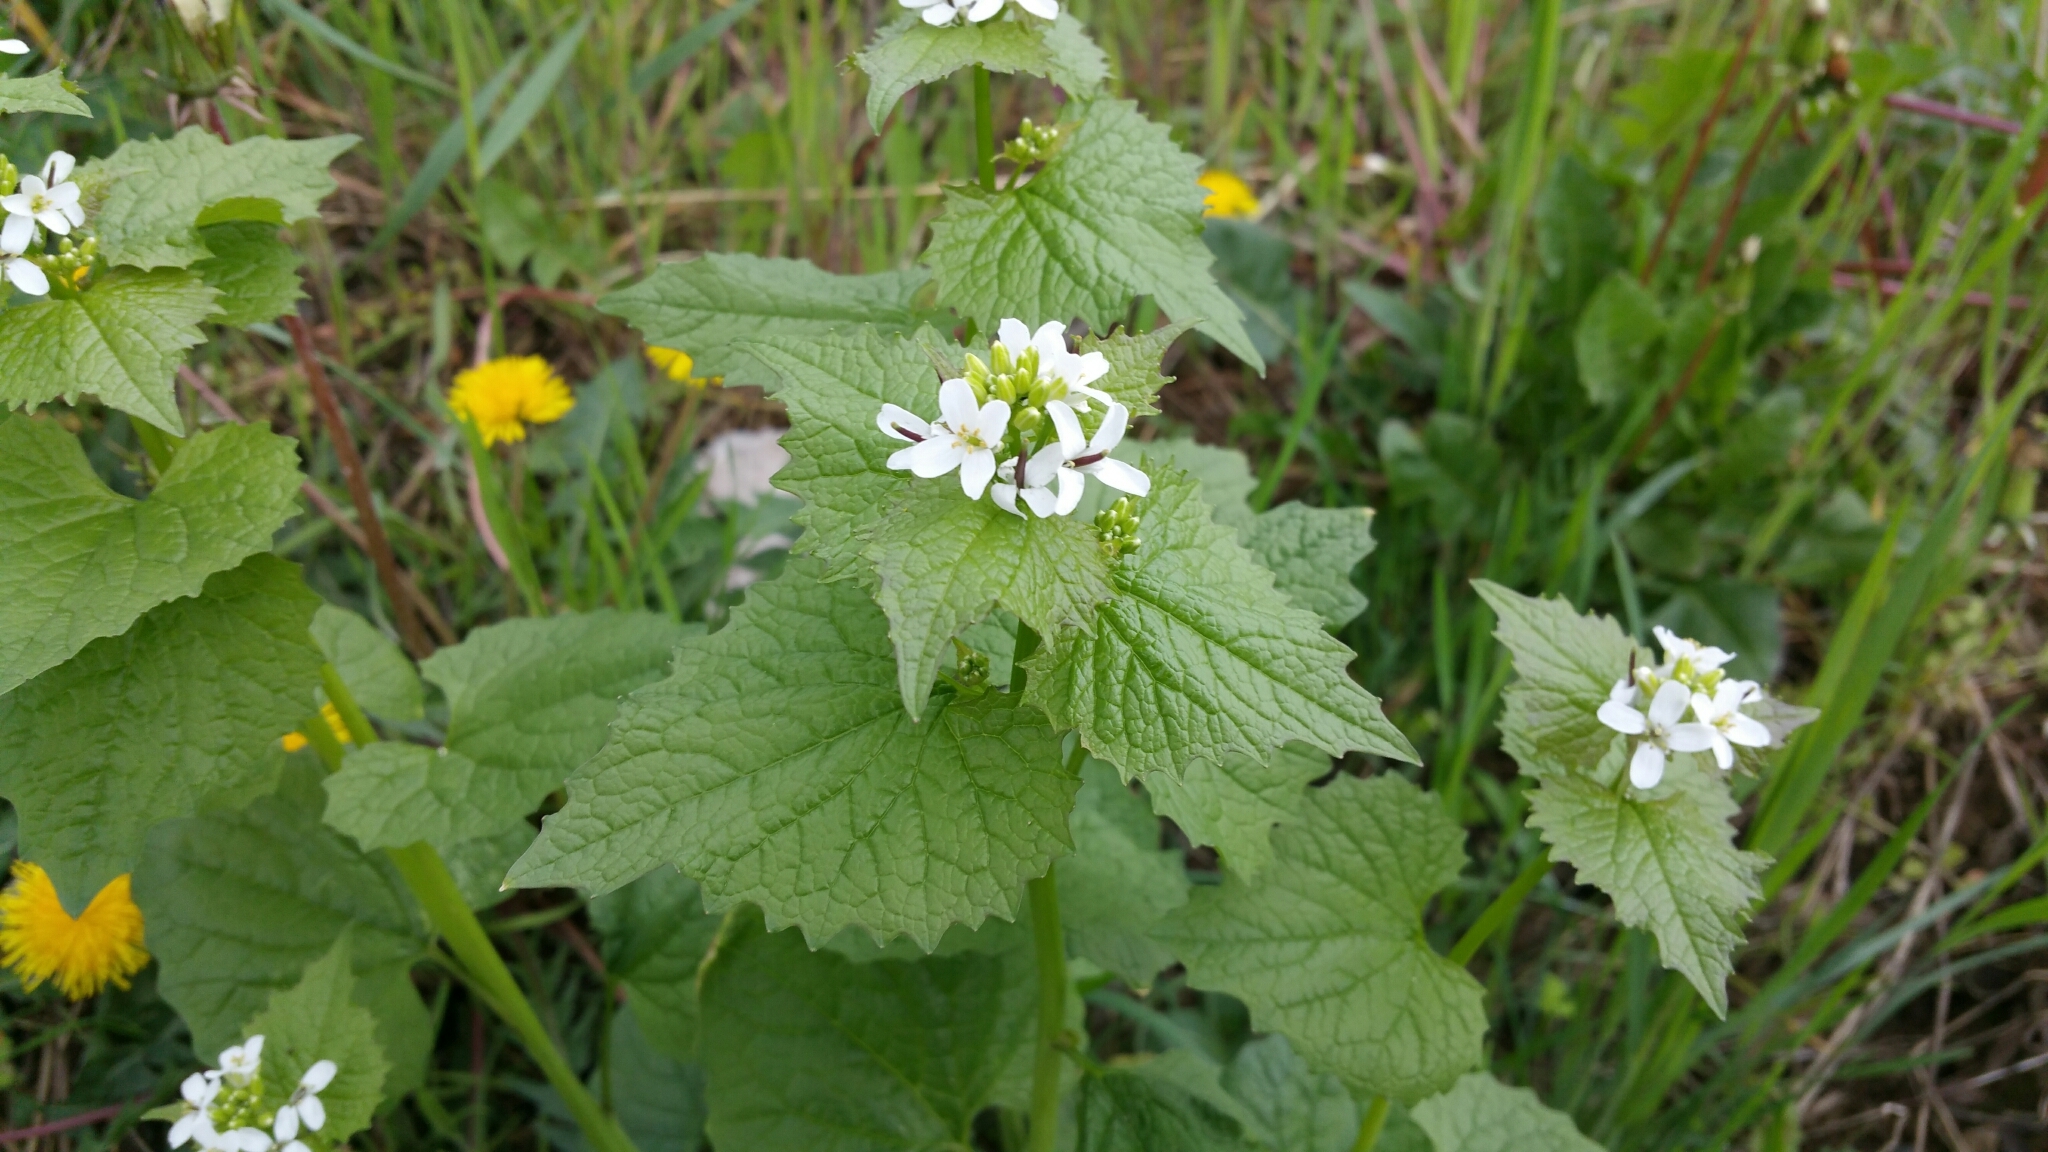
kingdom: Plantae
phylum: Tracheophyta
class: Magnoliopsida
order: Brassicales
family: Brassicaceae
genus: Alliaria
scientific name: Alliaria petiolata
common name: Garlic mustard
